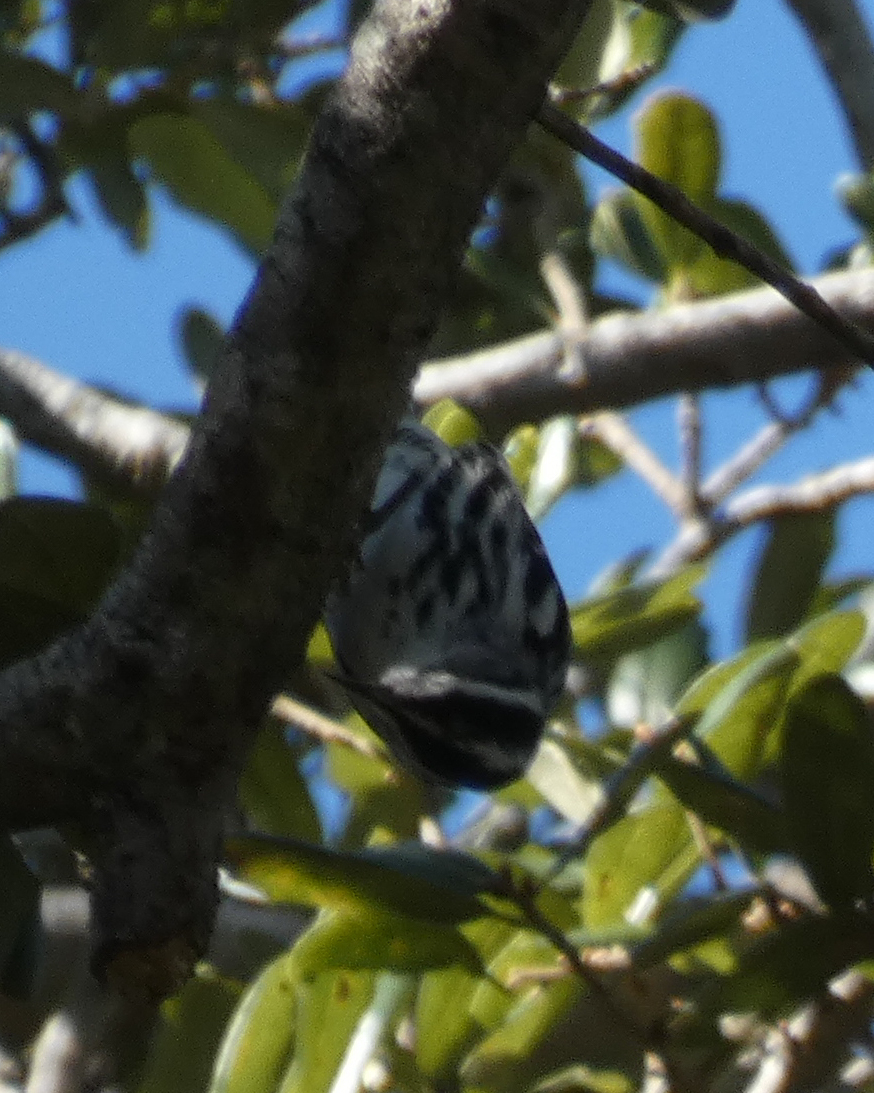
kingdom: Animalia
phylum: Chordata
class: Aves
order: Passeriformes
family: Parulidae
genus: Mniotilta
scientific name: Mniotilta varia
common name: Black-and-white warbler
